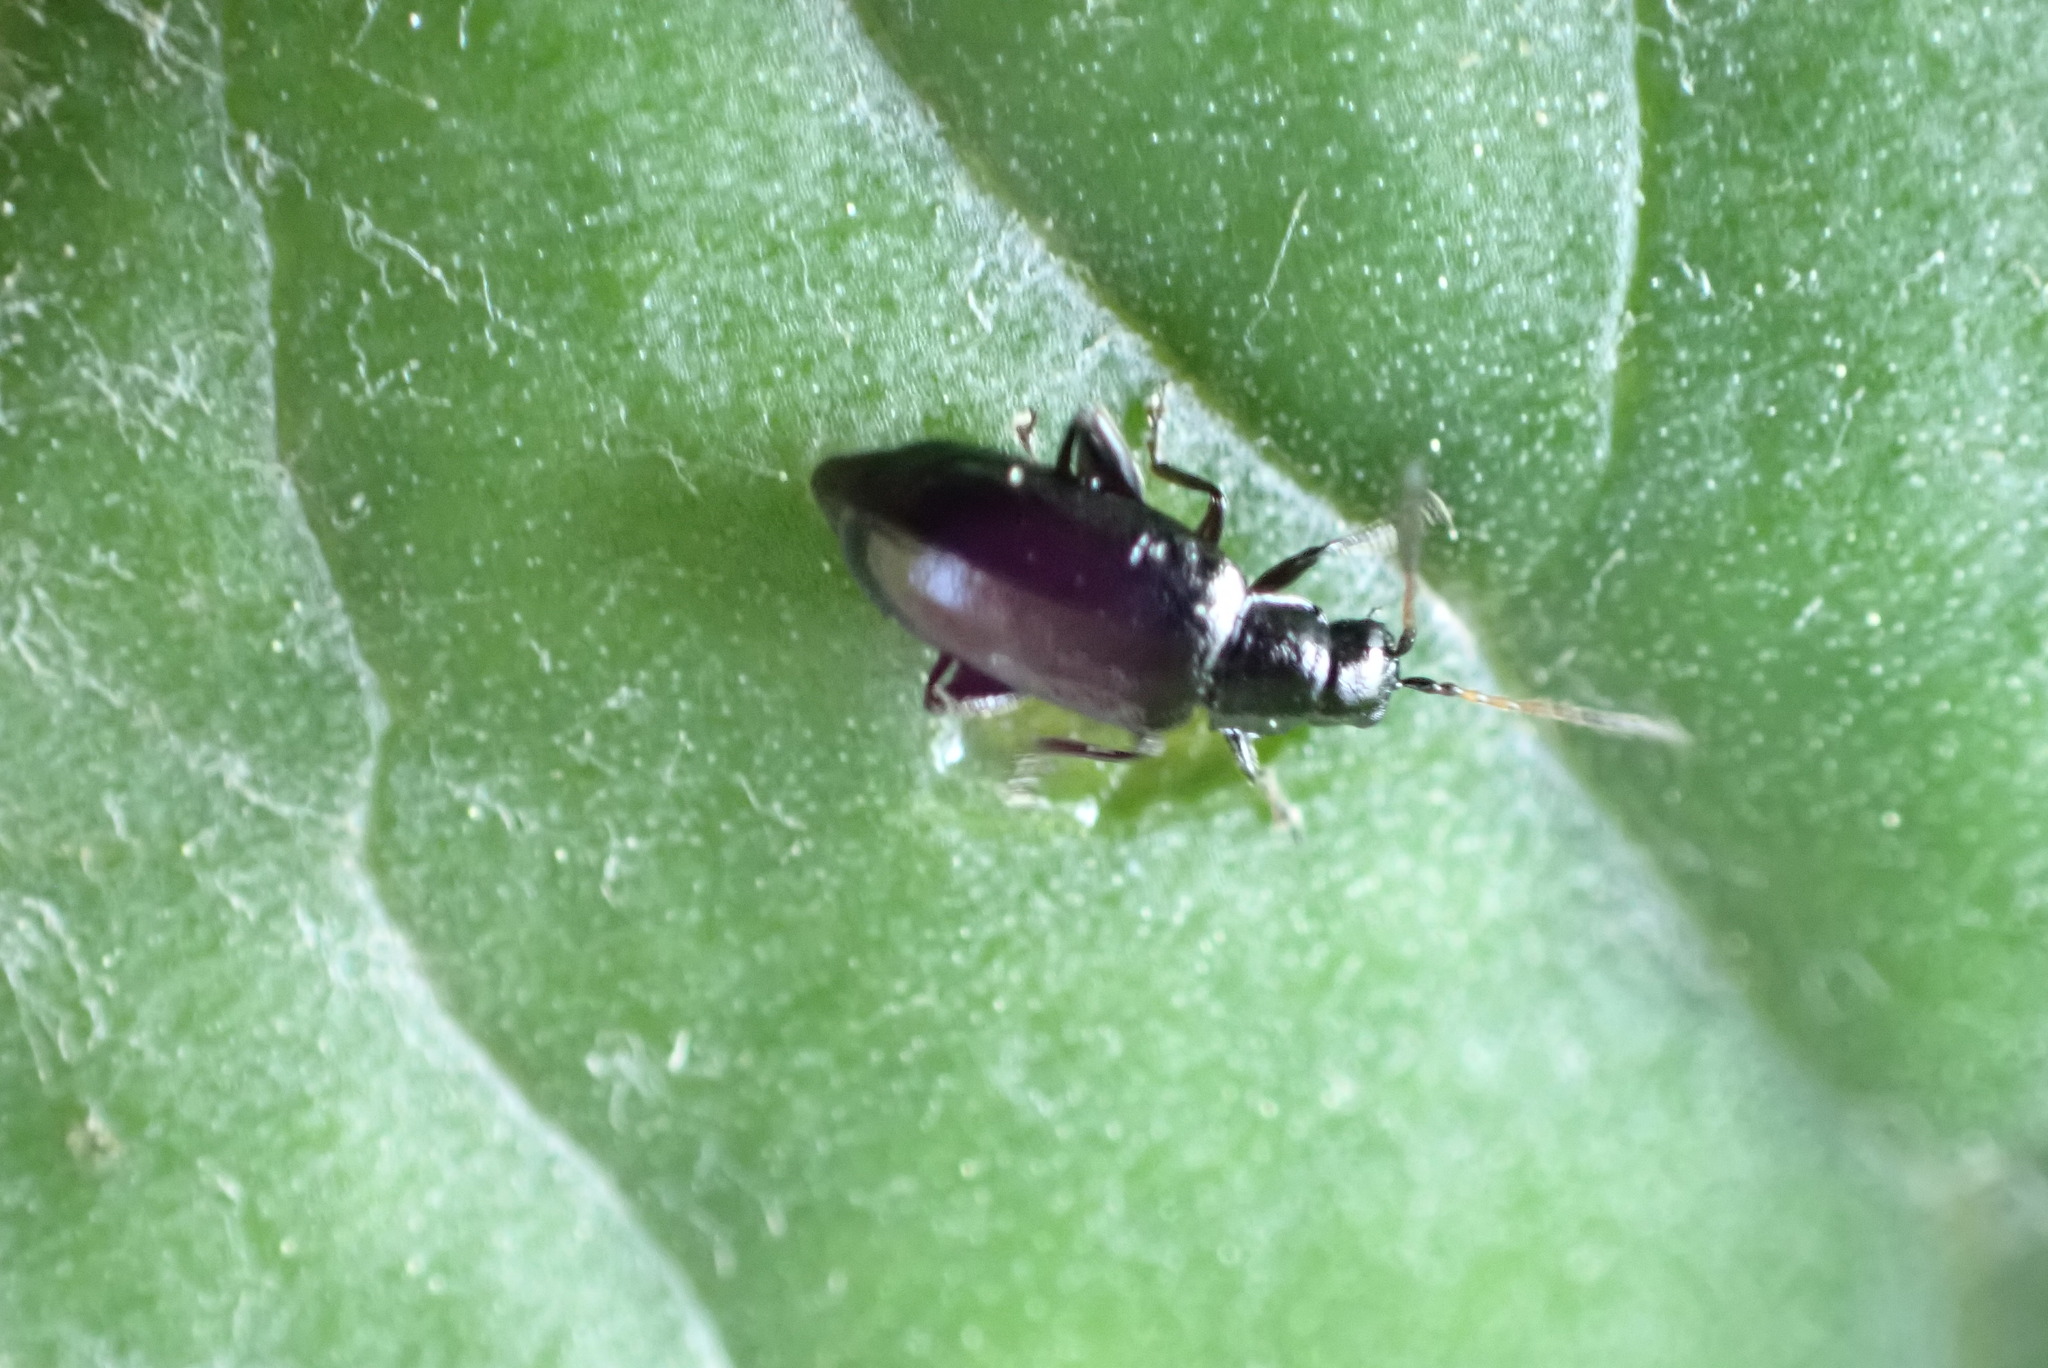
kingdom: Animalia
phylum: Arthropoda
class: Insecta
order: Coleoptera
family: Chrysomelidae
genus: Systena
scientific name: Systena hudsonias
